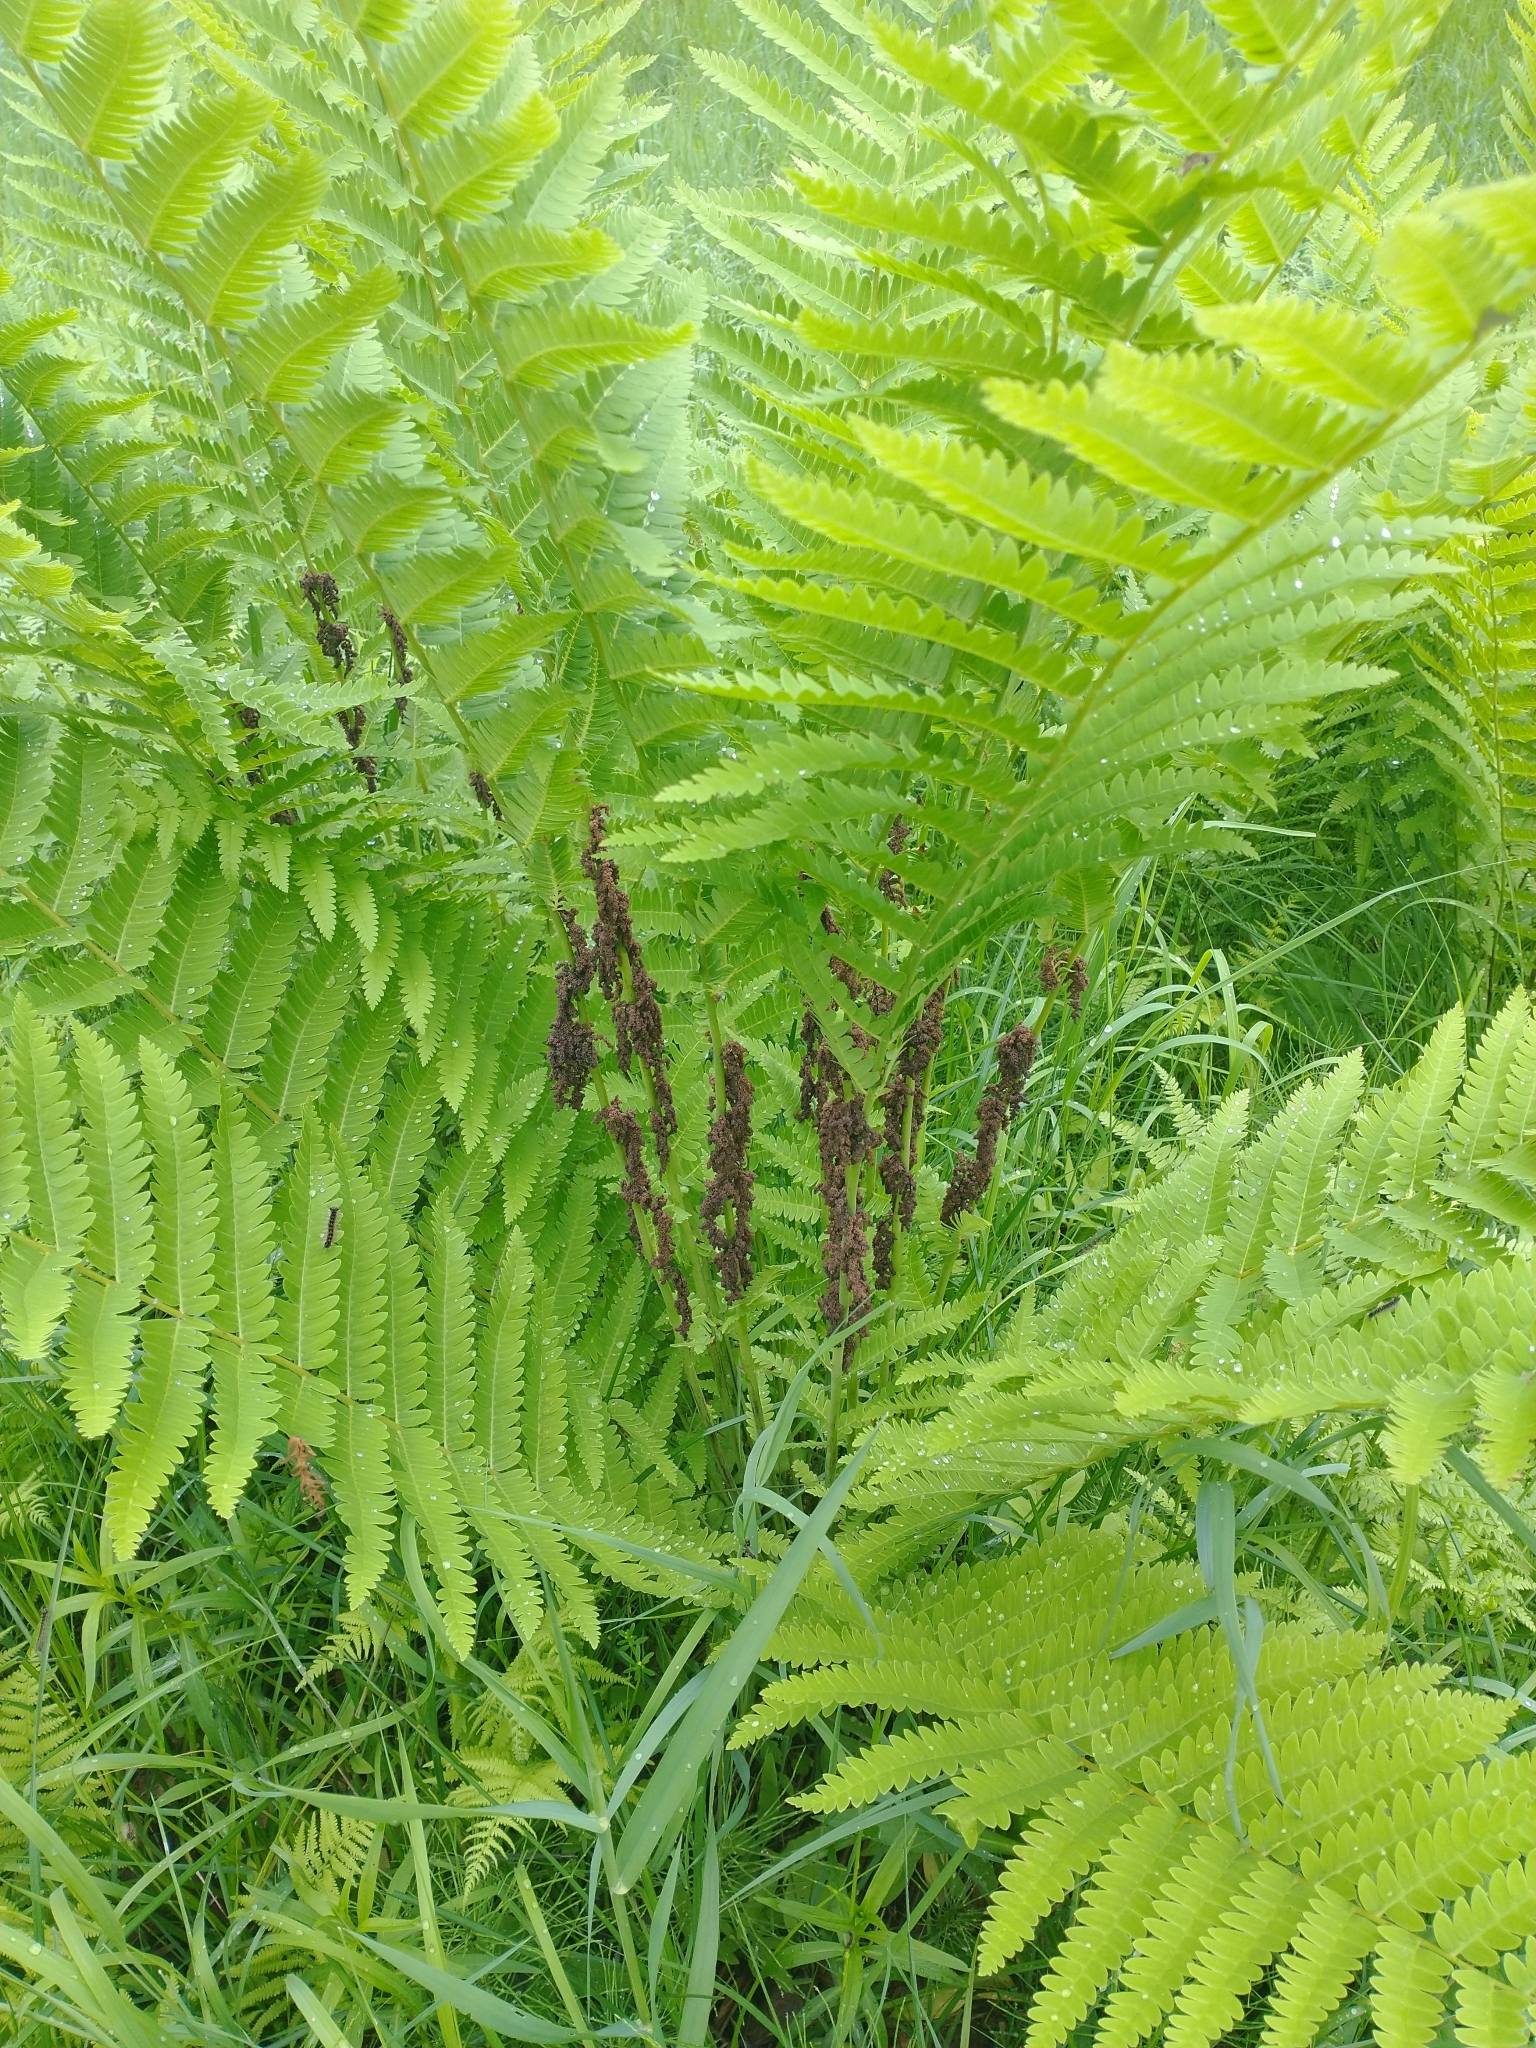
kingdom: Plantae
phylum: Tracheophyta
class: Polypodiopsida
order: Osmundales
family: Osmundaceae
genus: Claytosmunda
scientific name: Claytosmunda claytoniana
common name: Clayton's fern
